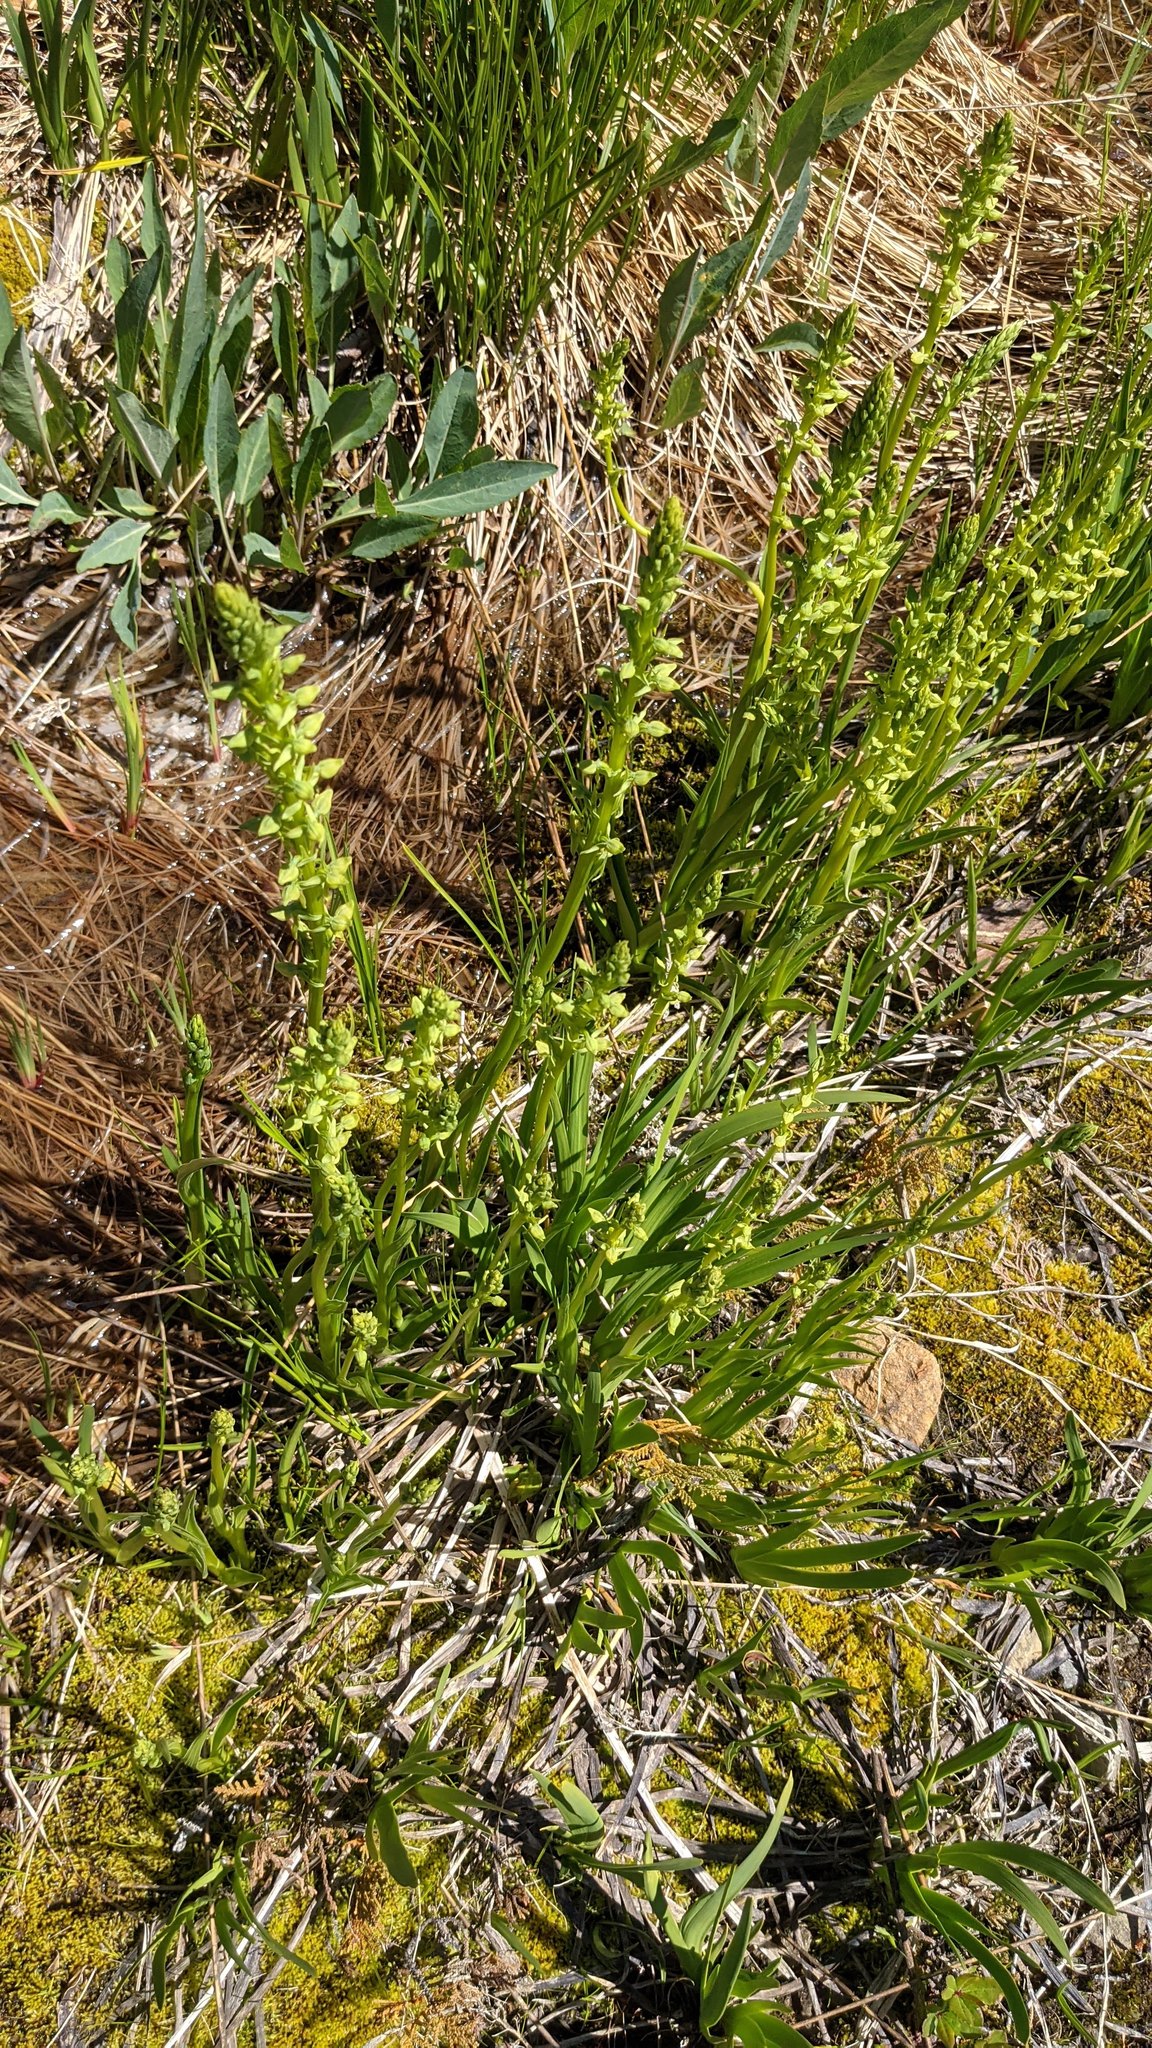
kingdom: Plantae
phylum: Tracheophyta
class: Liliopsida
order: Asparagales
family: Orchidaceae
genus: Platanthera
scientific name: Platanthera sparsiflora
